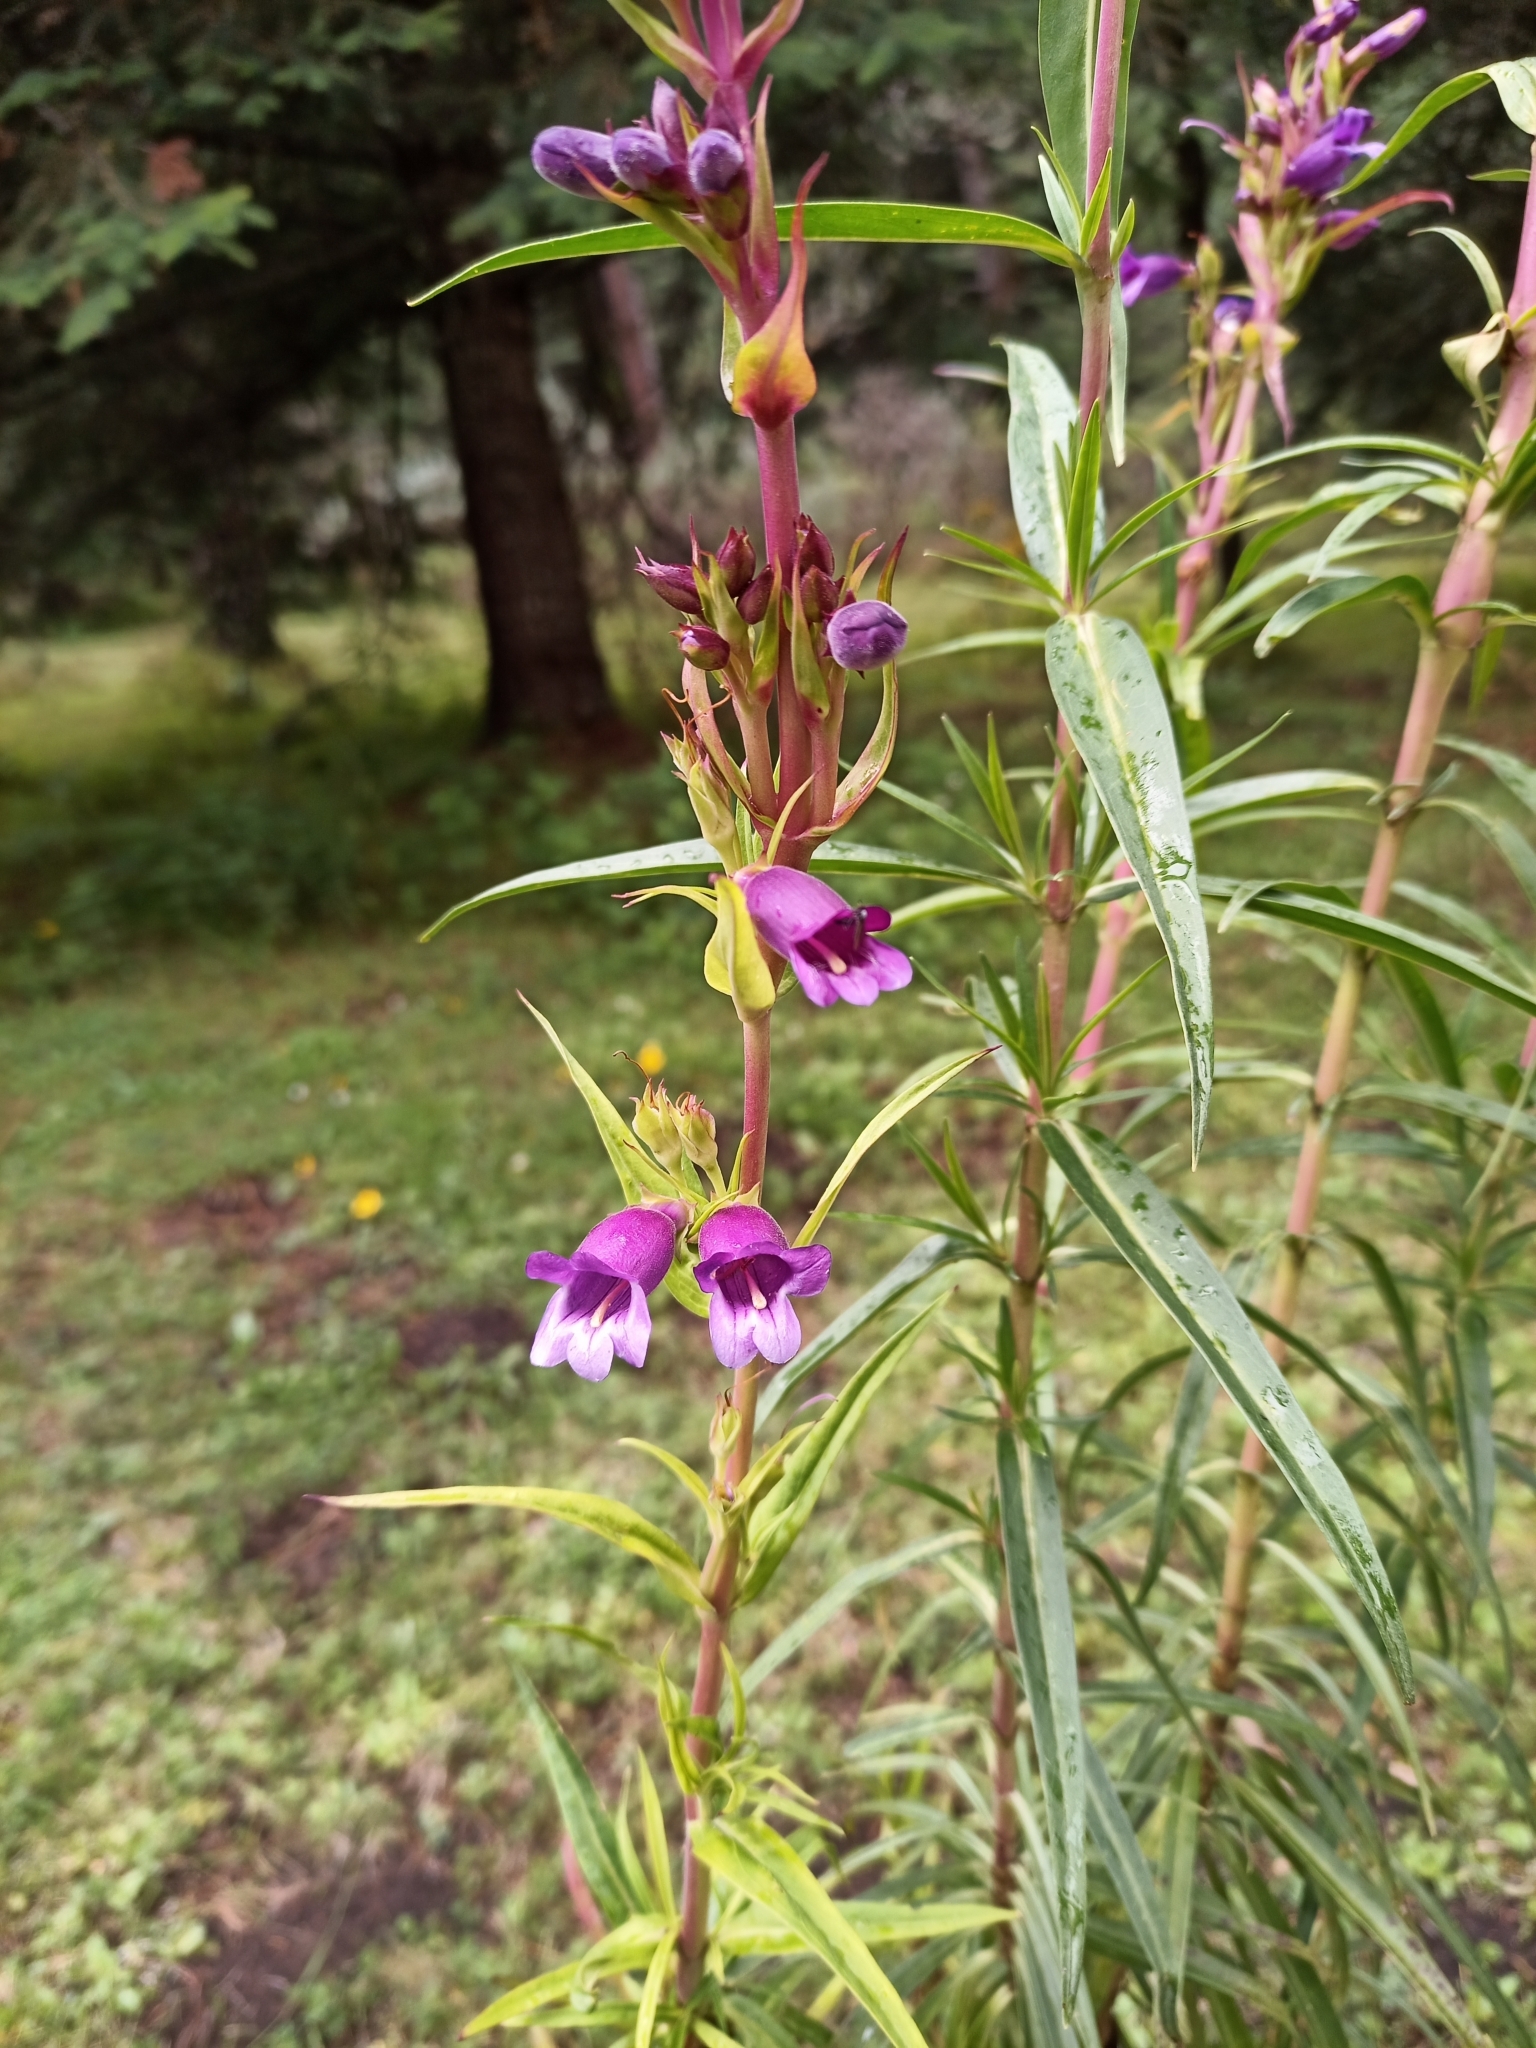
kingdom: Plantae
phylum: Tracheophyta
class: Magnoliopsida
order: Lamiales
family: Plantaginaceae
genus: Penstemon
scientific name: Penstemon gentianoides
